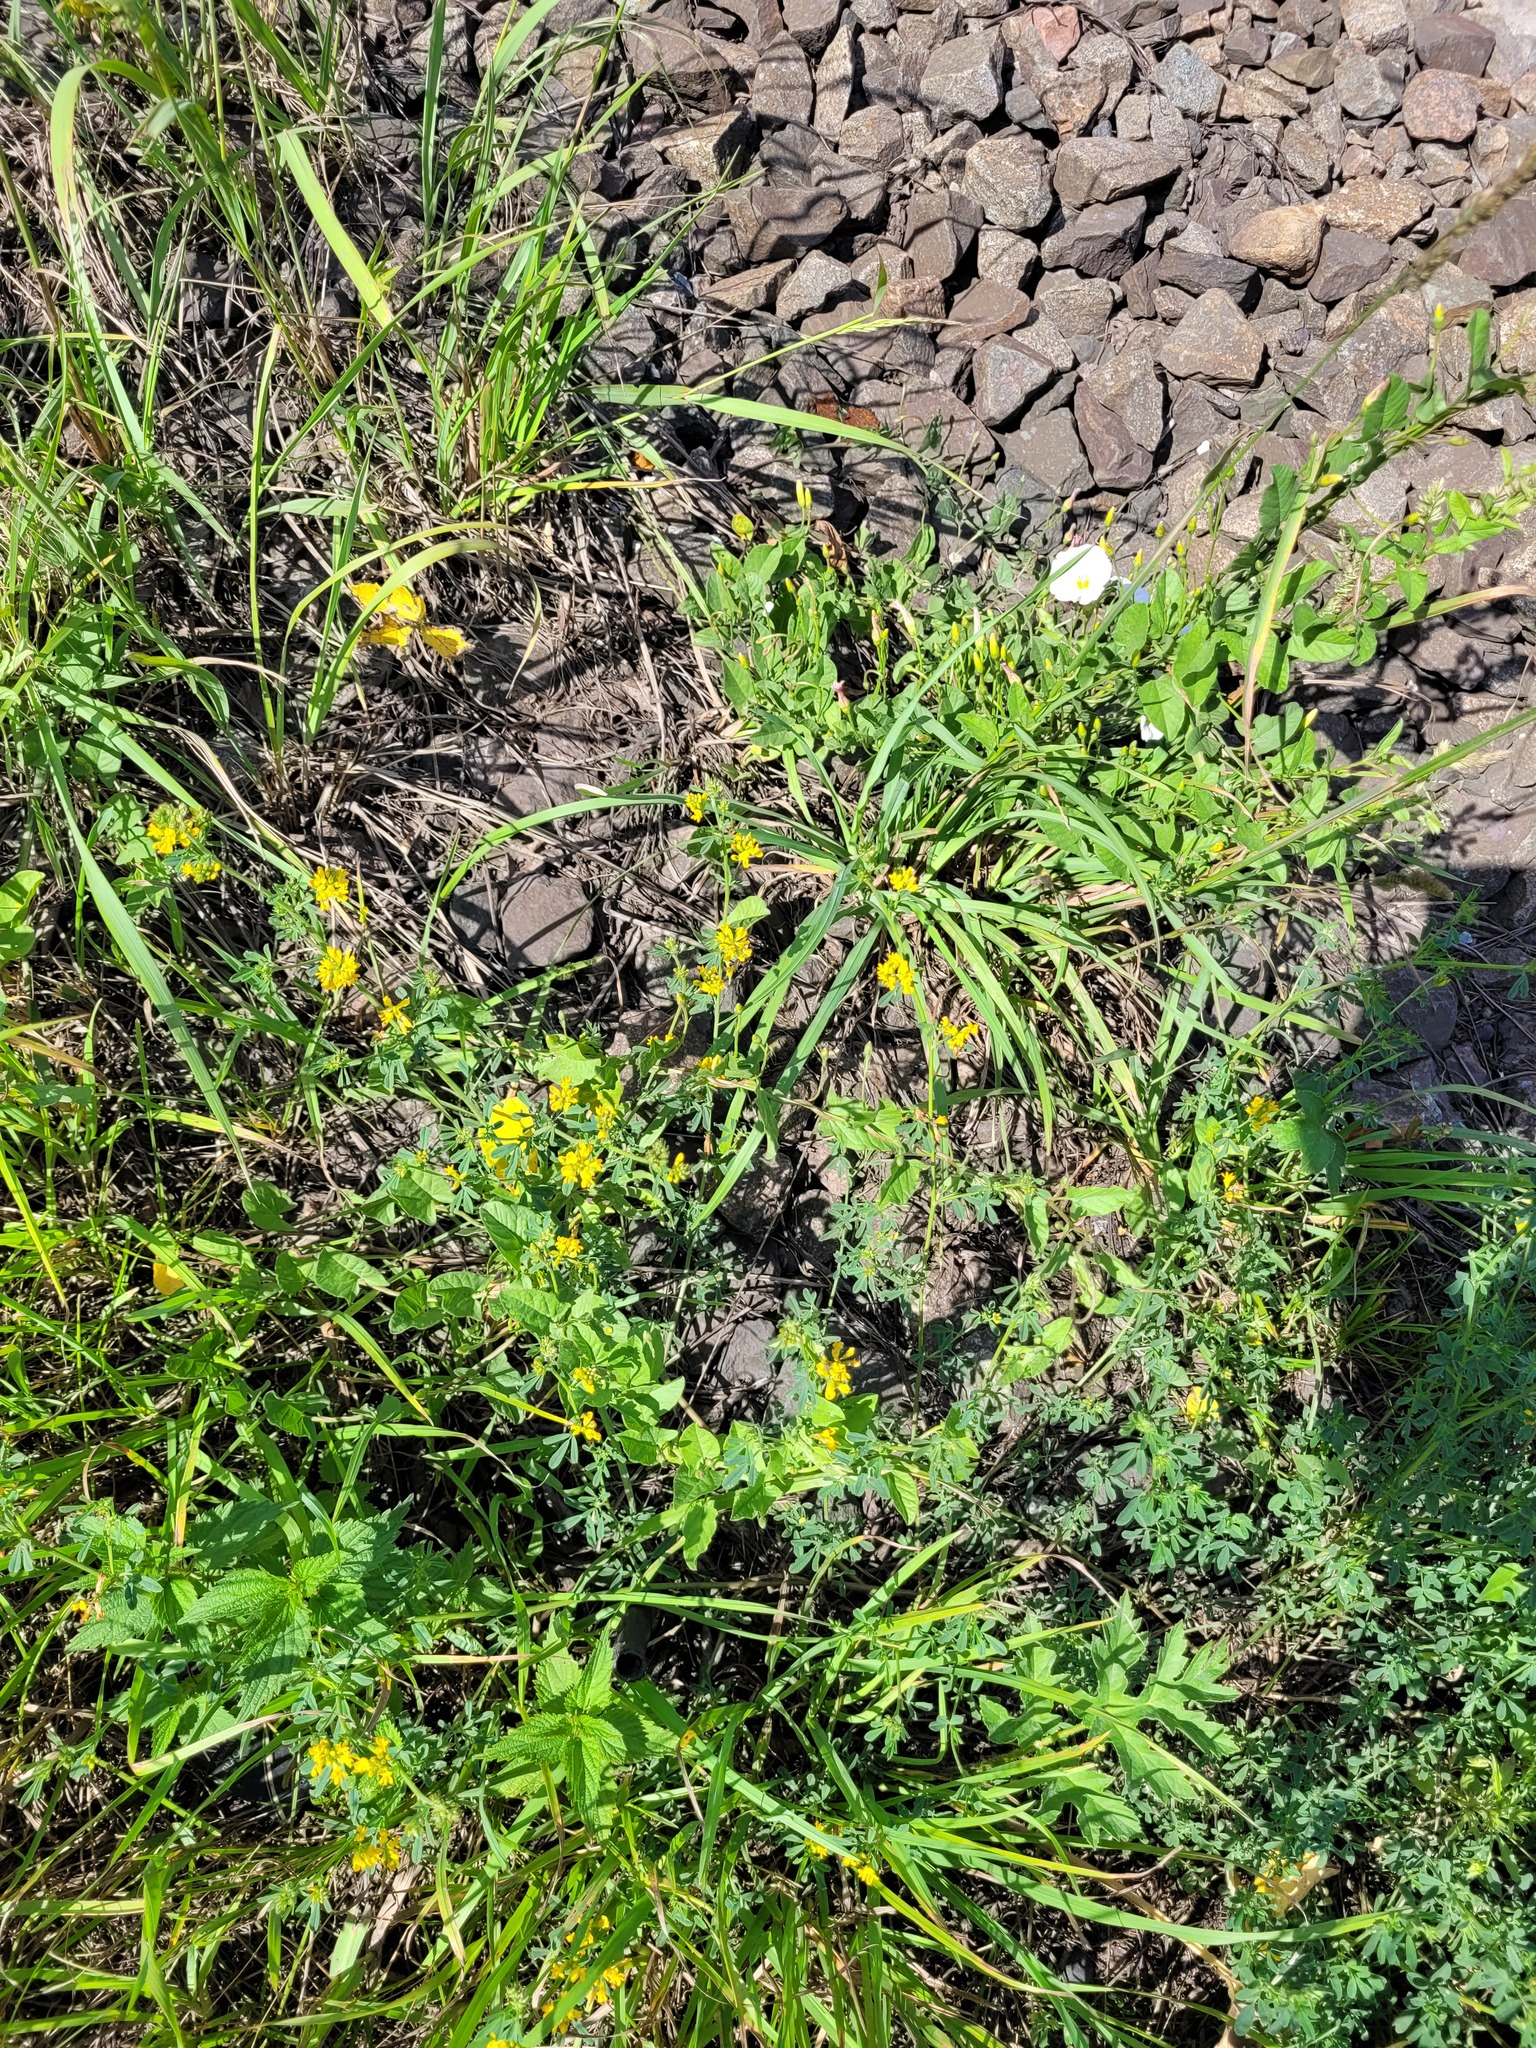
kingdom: Plantae
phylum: Tracheophyta
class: Magnoliopsida
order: Fabales
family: Fabaceae
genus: Medicago
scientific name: Medicago falcata
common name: Sickle medick
